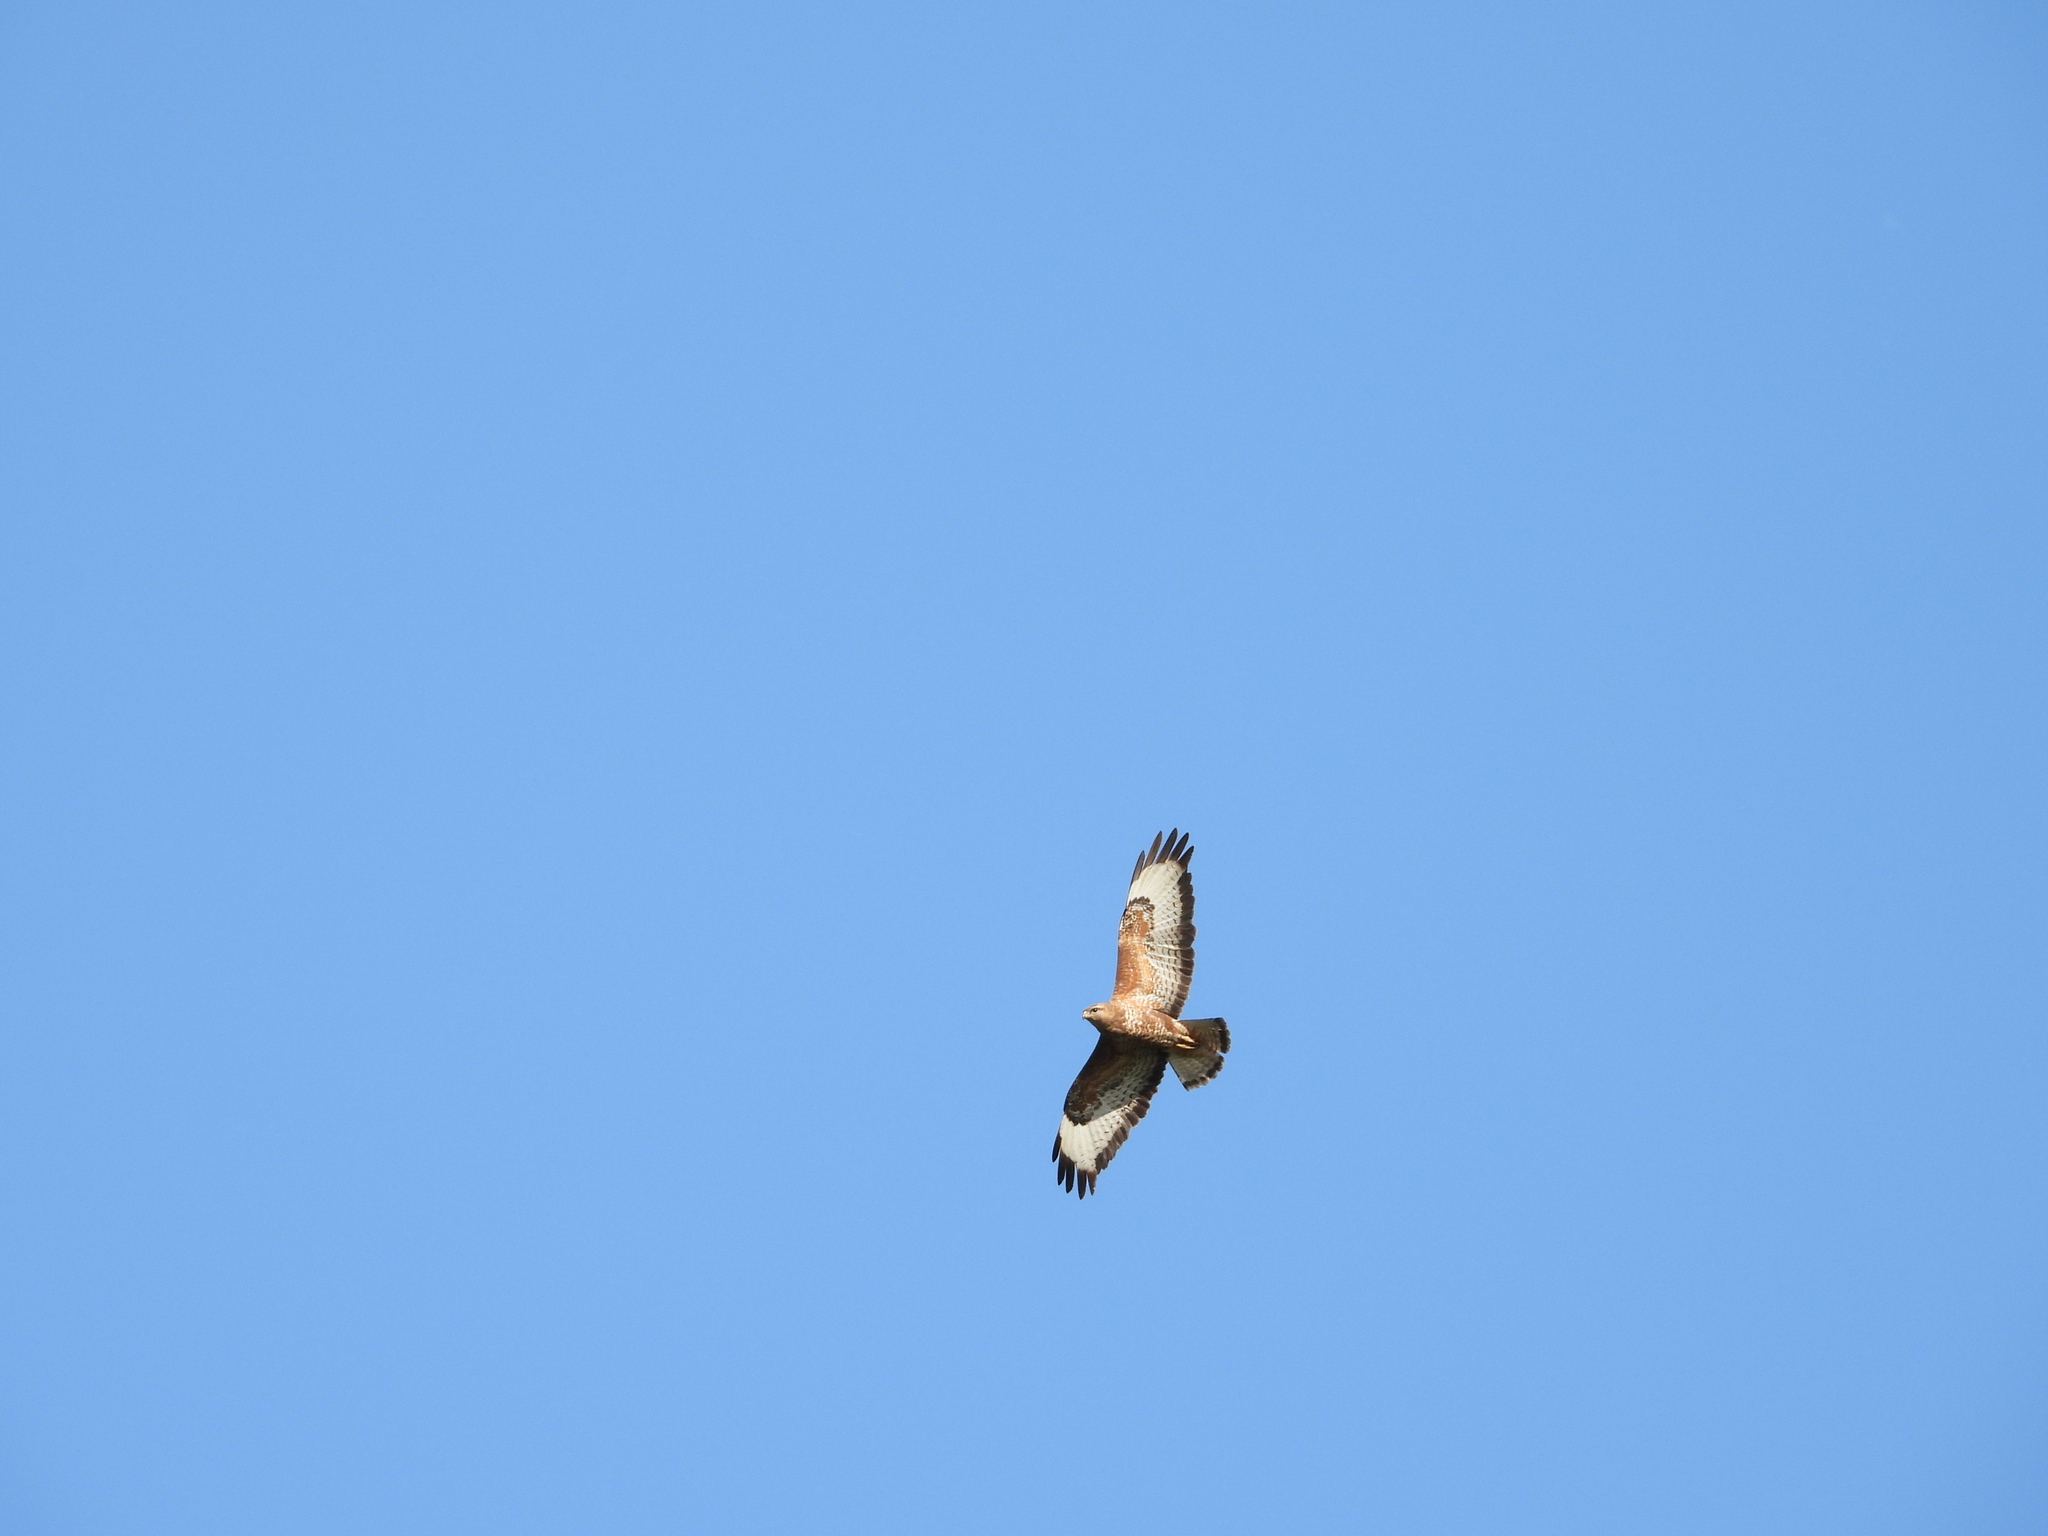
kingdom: Animalia
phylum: Chordata
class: Aves
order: Accipitriformes
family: Accipitridae
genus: Buteo
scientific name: Buteo buteo
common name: Common buzzard
